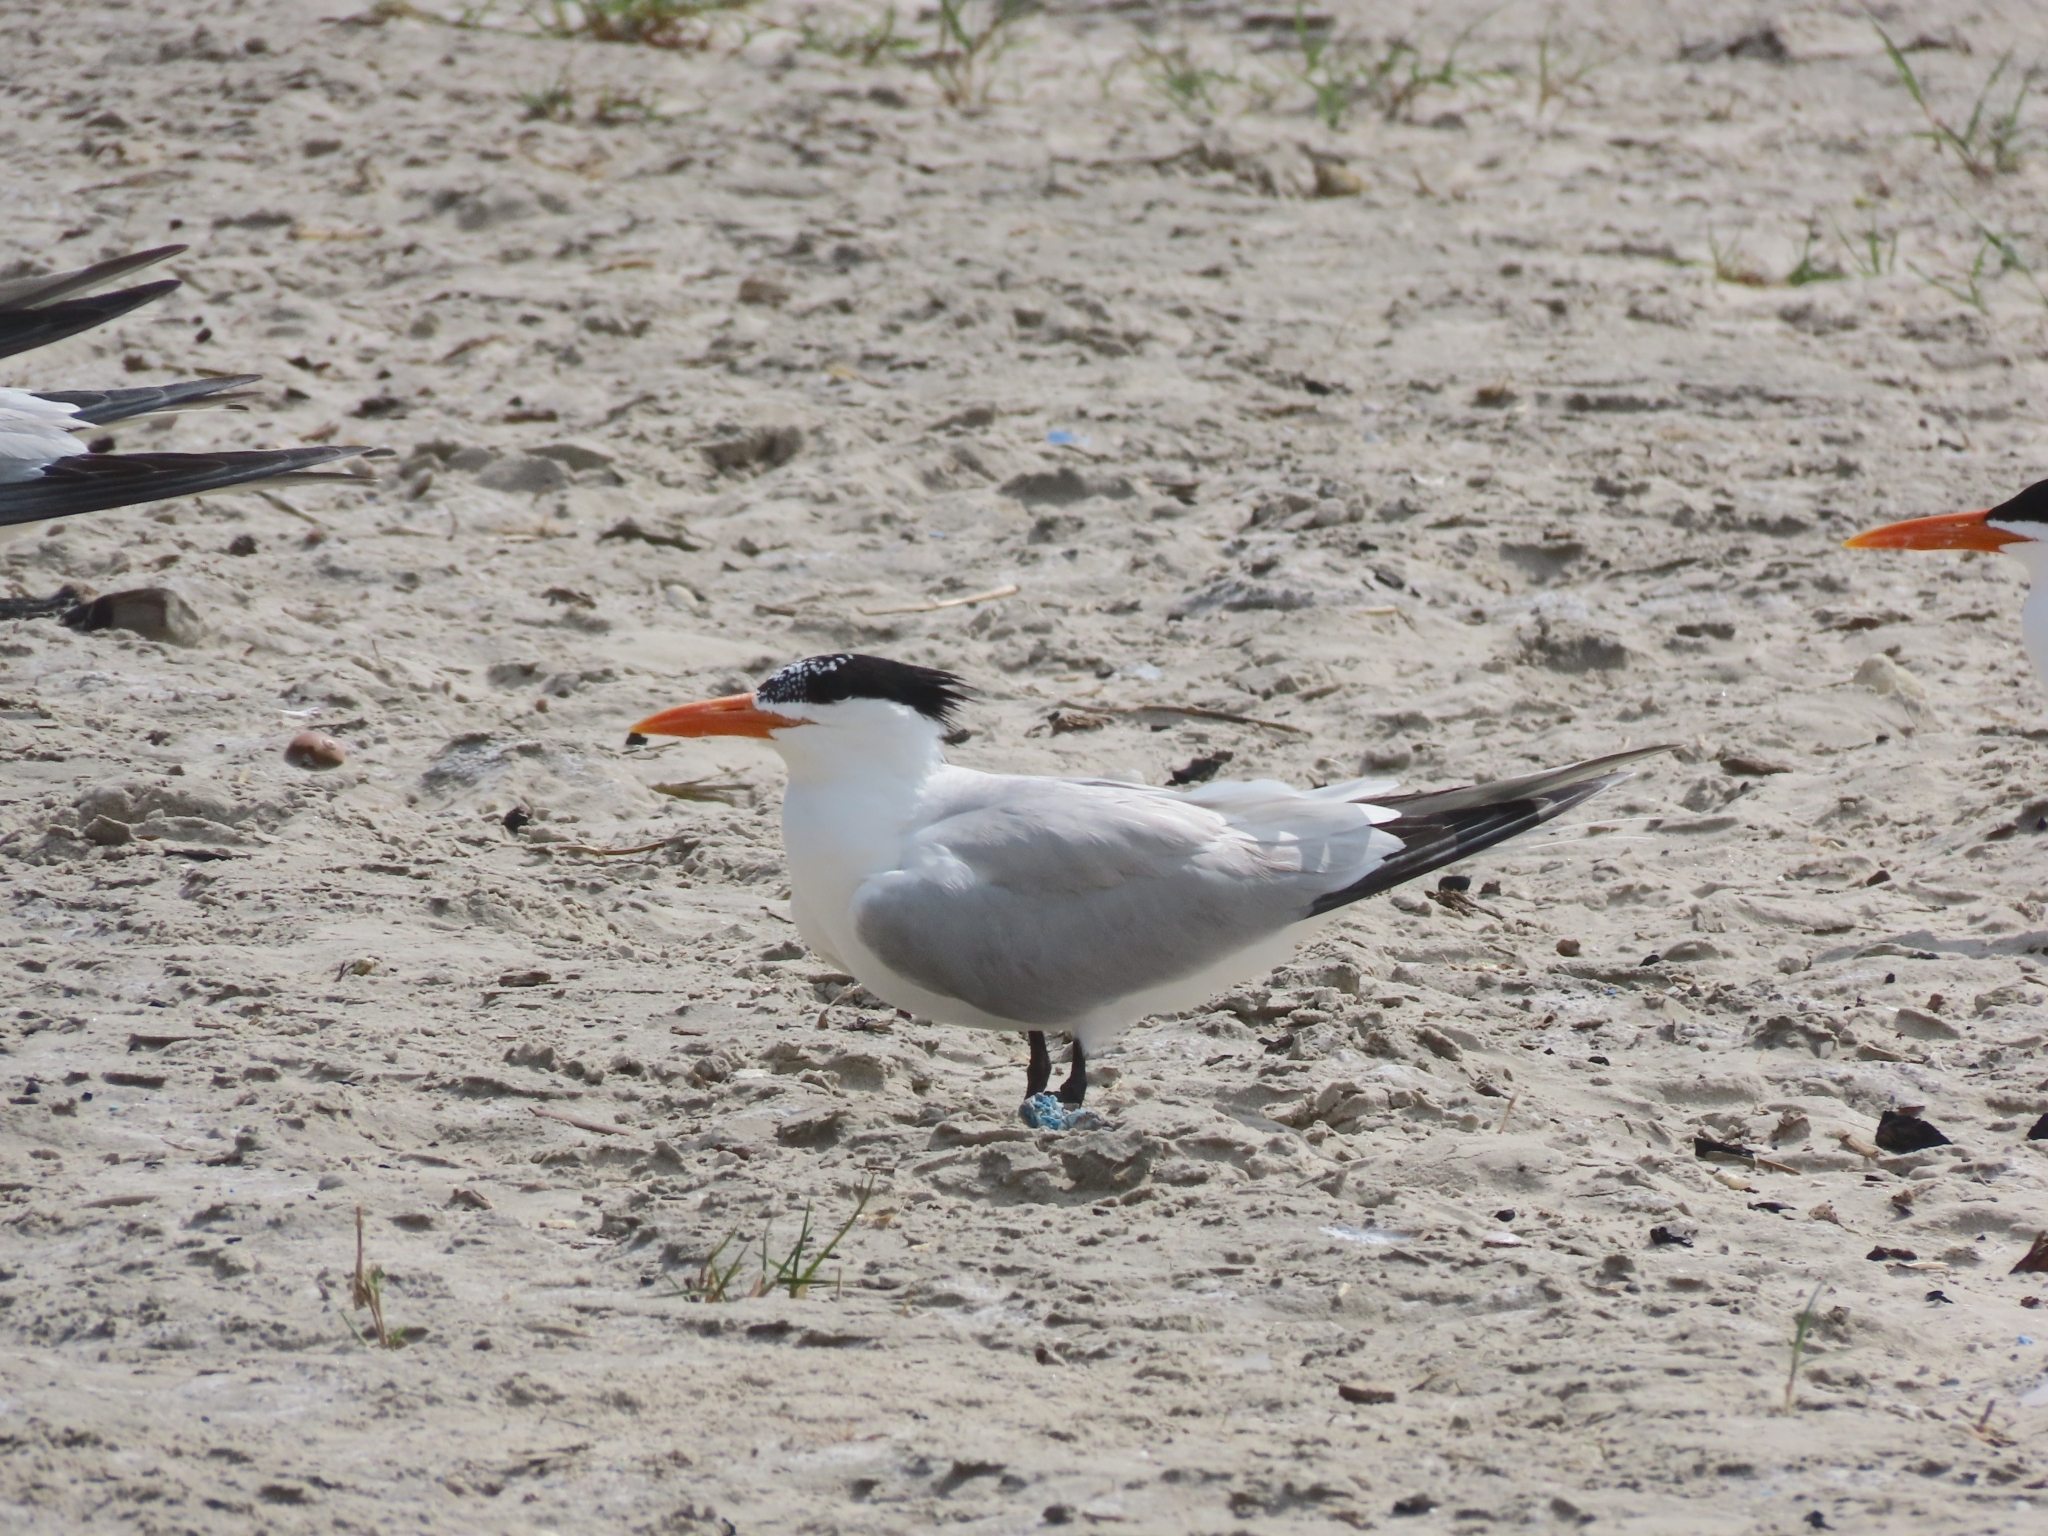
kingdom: Animalia
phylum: Chordata
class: Aves
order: Charadriiformes
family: Laridae
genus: Thalasseus
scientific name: Thalasseus maximus
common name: Royal tern
